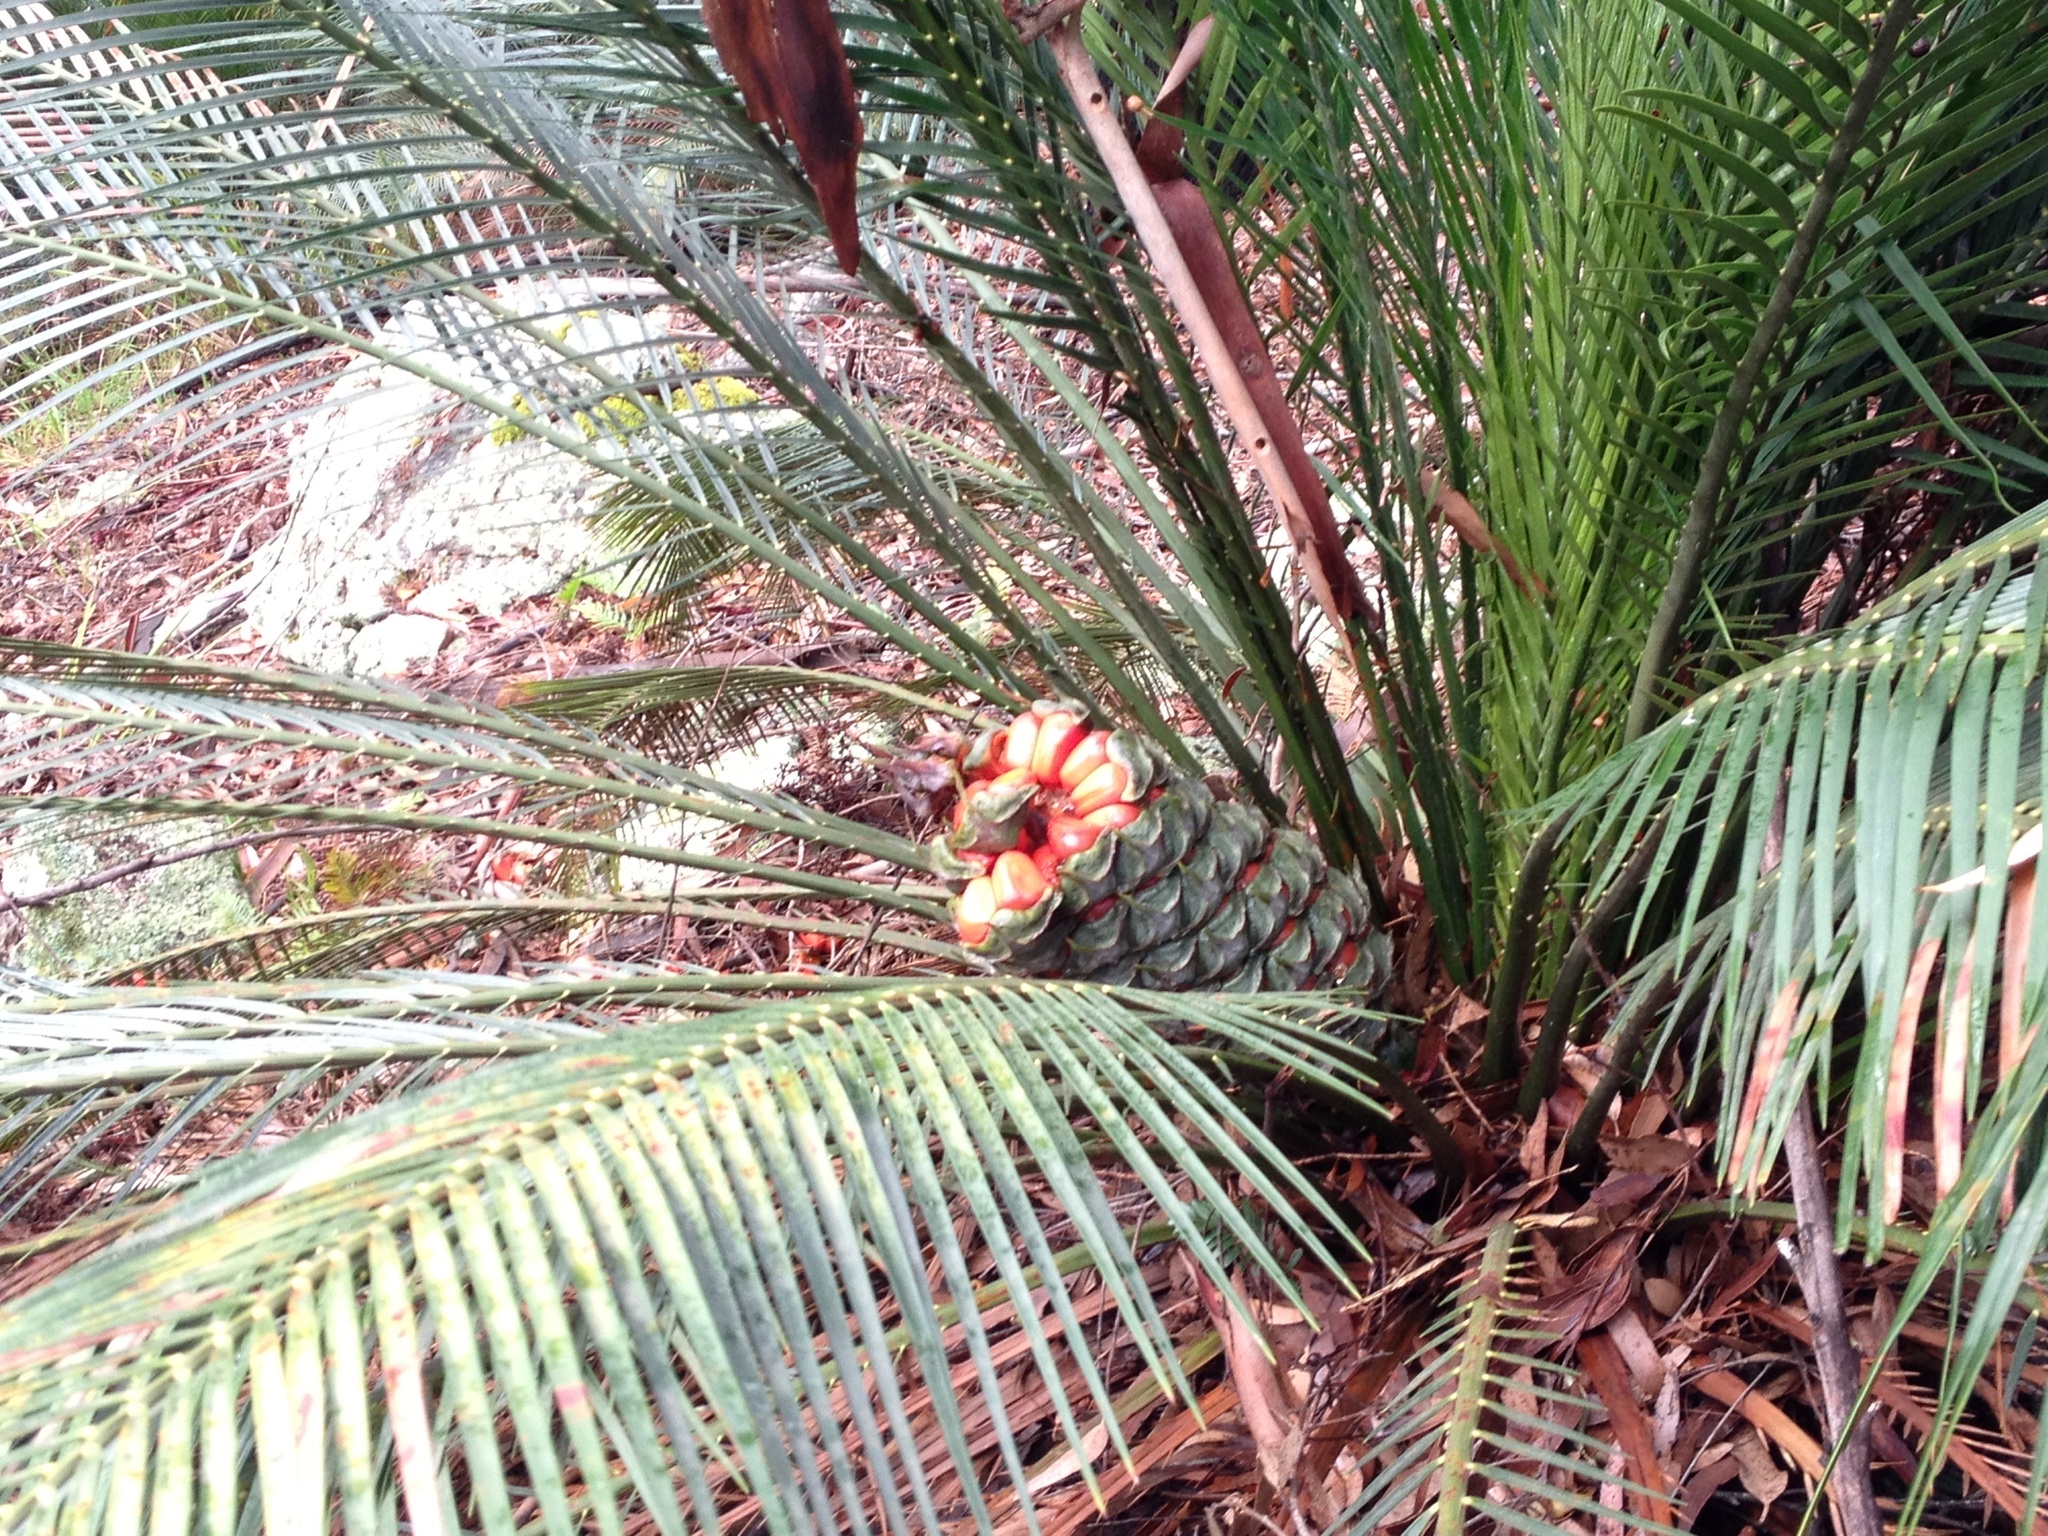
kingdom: Plantae
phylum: Tracheophyta
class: Cycadopsida
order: Cycadales
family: Zamiaceae
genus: Macrozamia
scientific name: Macrozamia communis
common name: Burrawong
